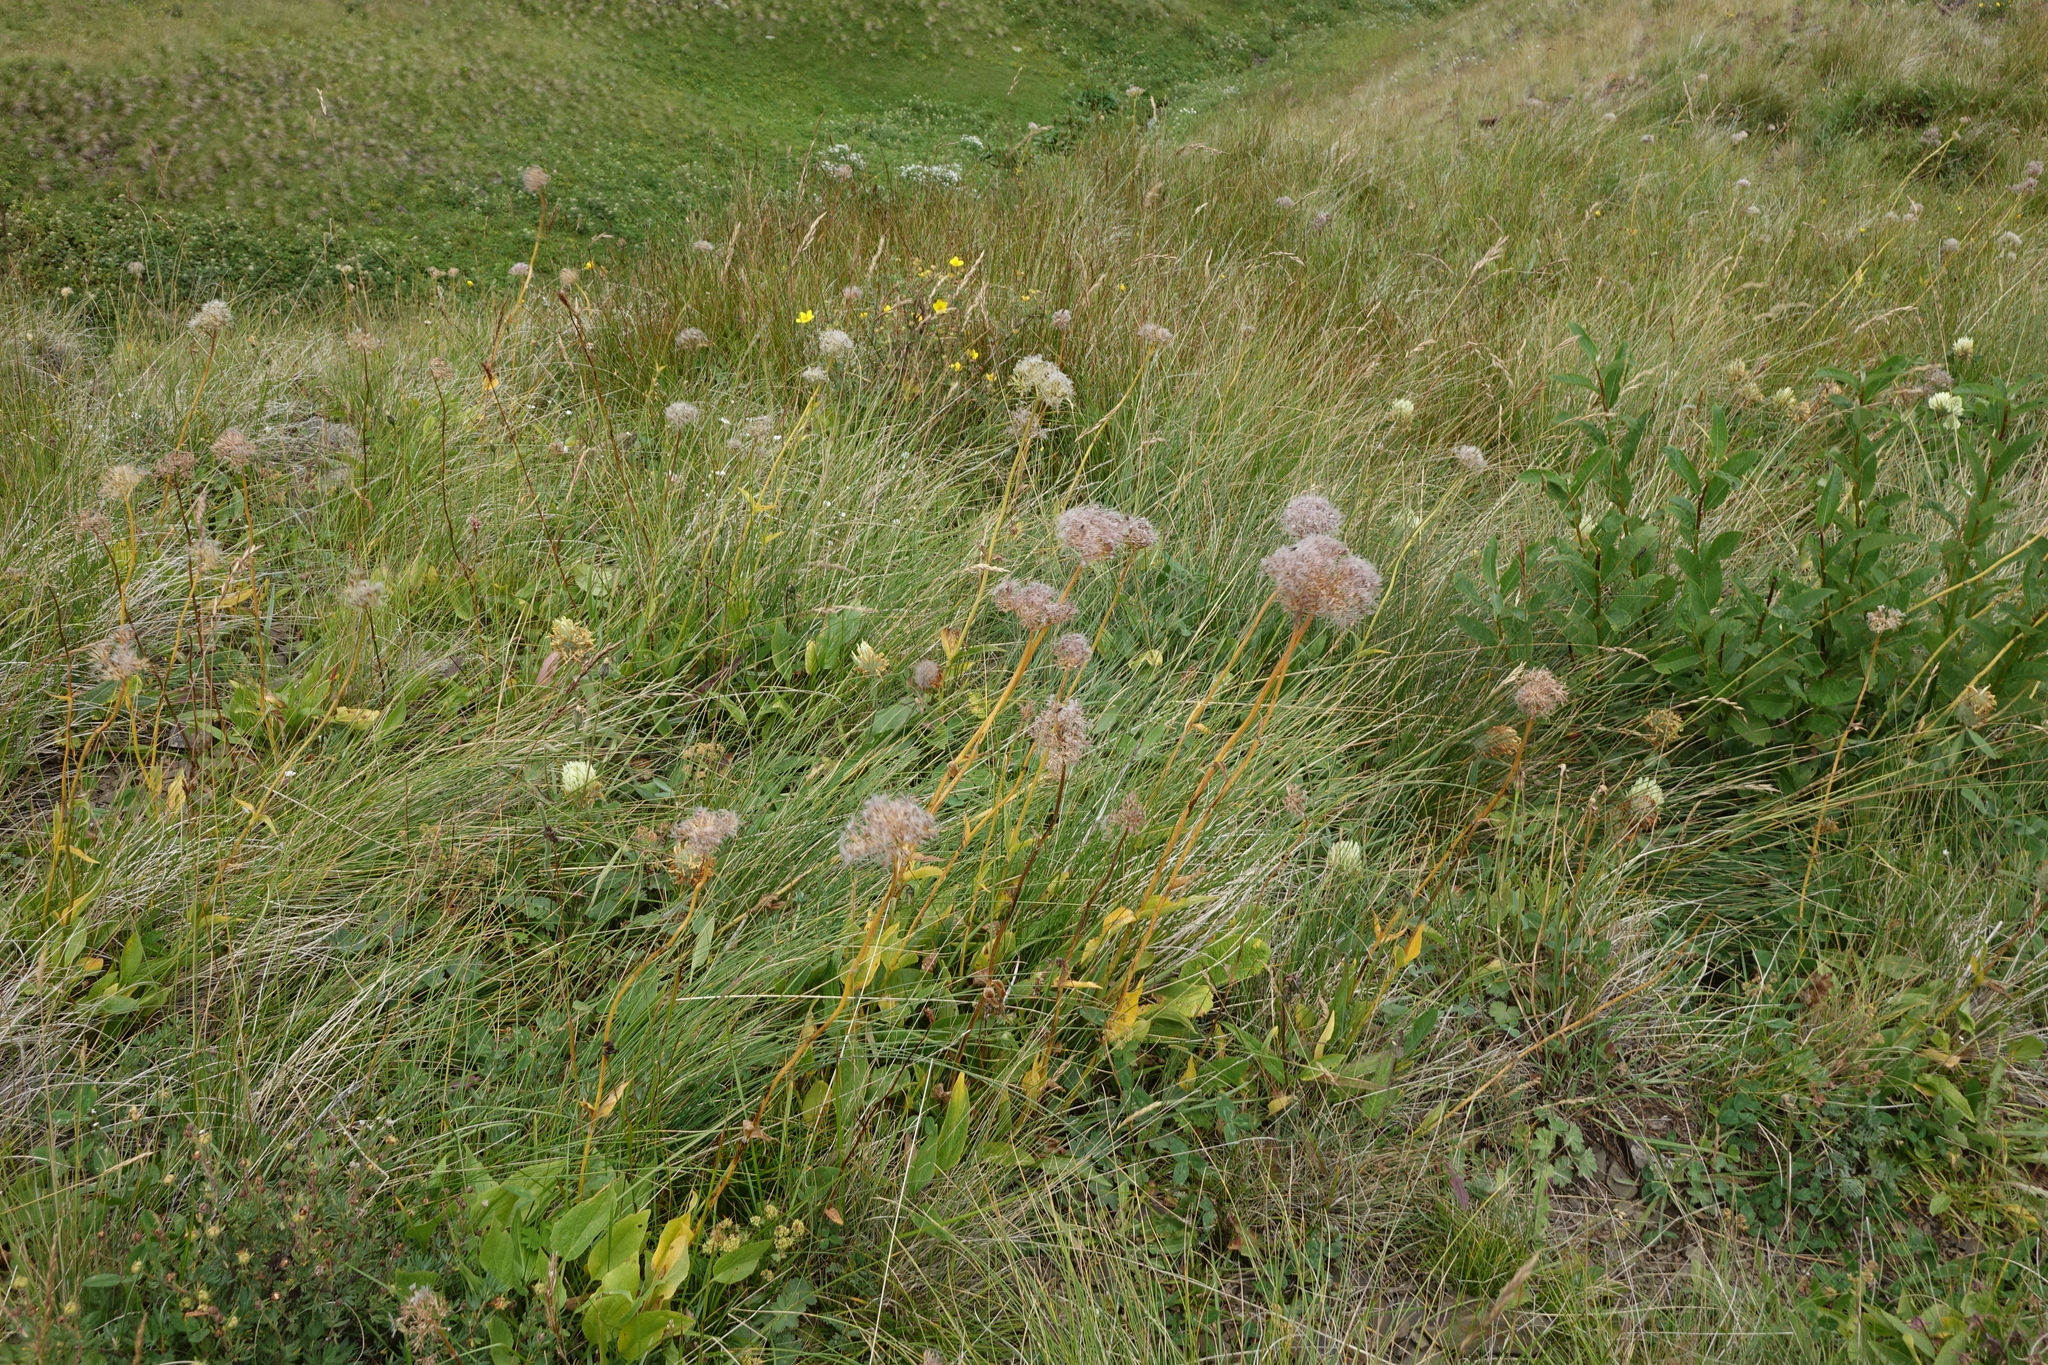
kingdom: Plantae
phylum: Tracheophyta
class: Magnoliopsida
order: Dipsacales
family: Caprifoliaceae
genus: Valeriana
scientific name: Valeriana alpestris
